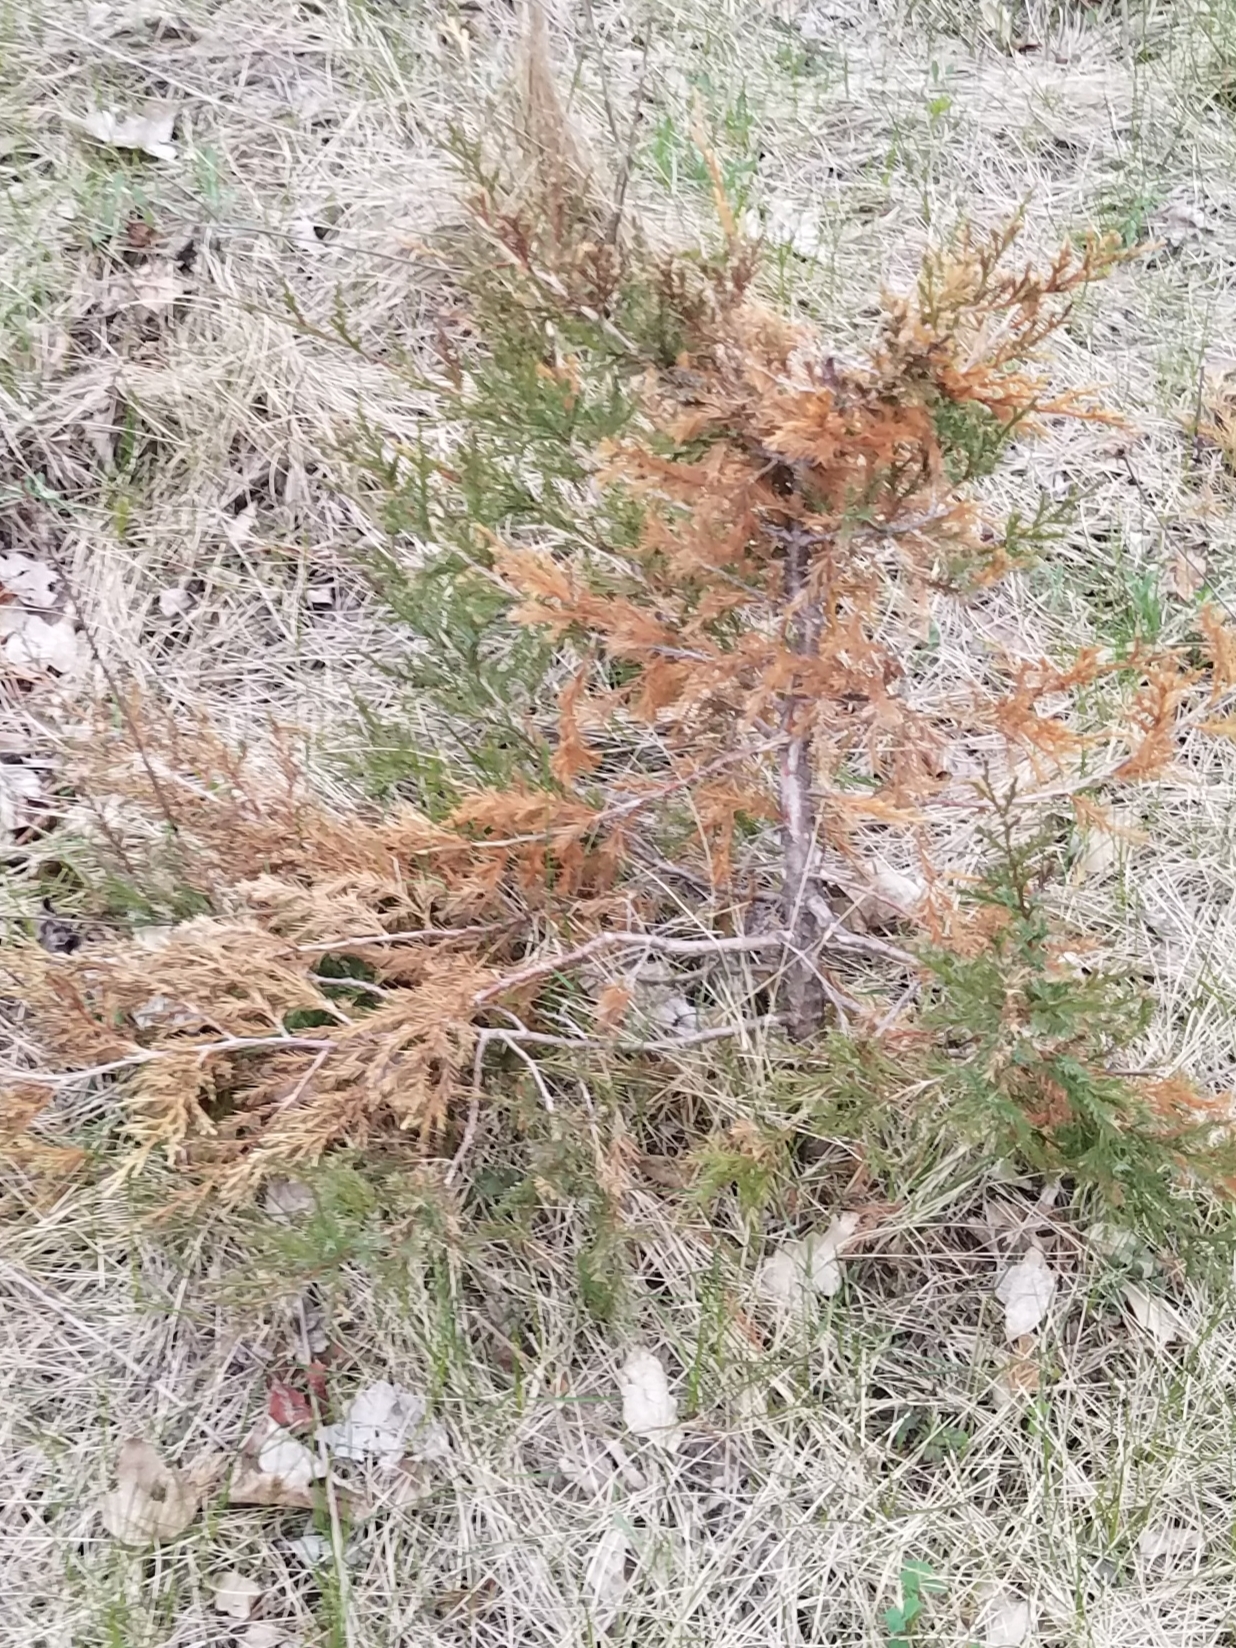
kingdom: Plantae
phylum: Tracheophyta
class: Pinopsida
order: Pinales
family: Cupressaceae
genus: Juniperus
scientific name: Juniperus virginiana
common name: Red juniper
